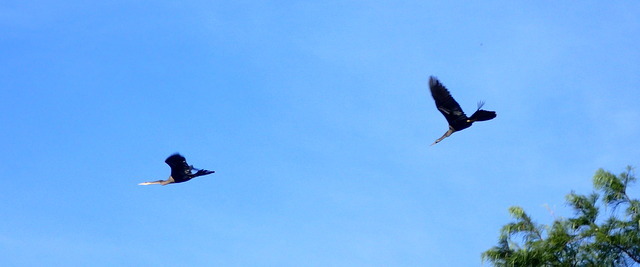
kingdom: Animalia
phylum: Chordata
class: Aves
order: Suliformes
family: Anhingidae
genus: Anhinga
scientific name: Anhinga anhinga
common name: Anhinga
